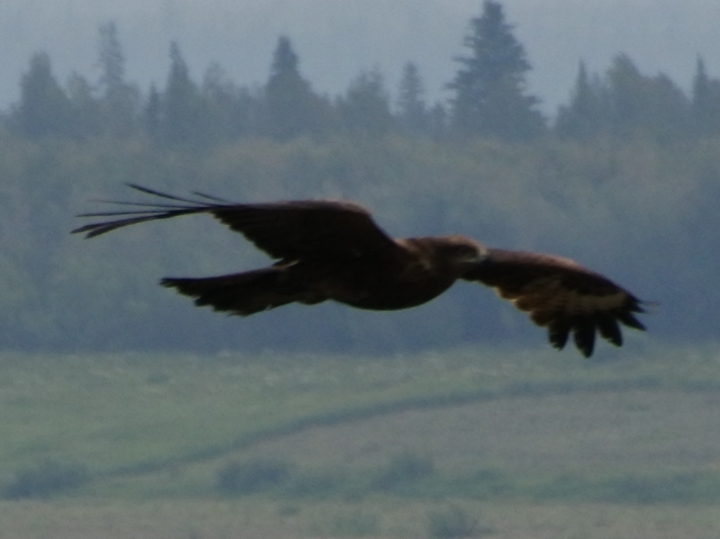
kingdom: Animalia
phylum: Chordata
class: Aves
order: Accipitriformes
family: Accipitridae
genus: Milvus
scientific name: Milvus migrans
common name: Black kite
